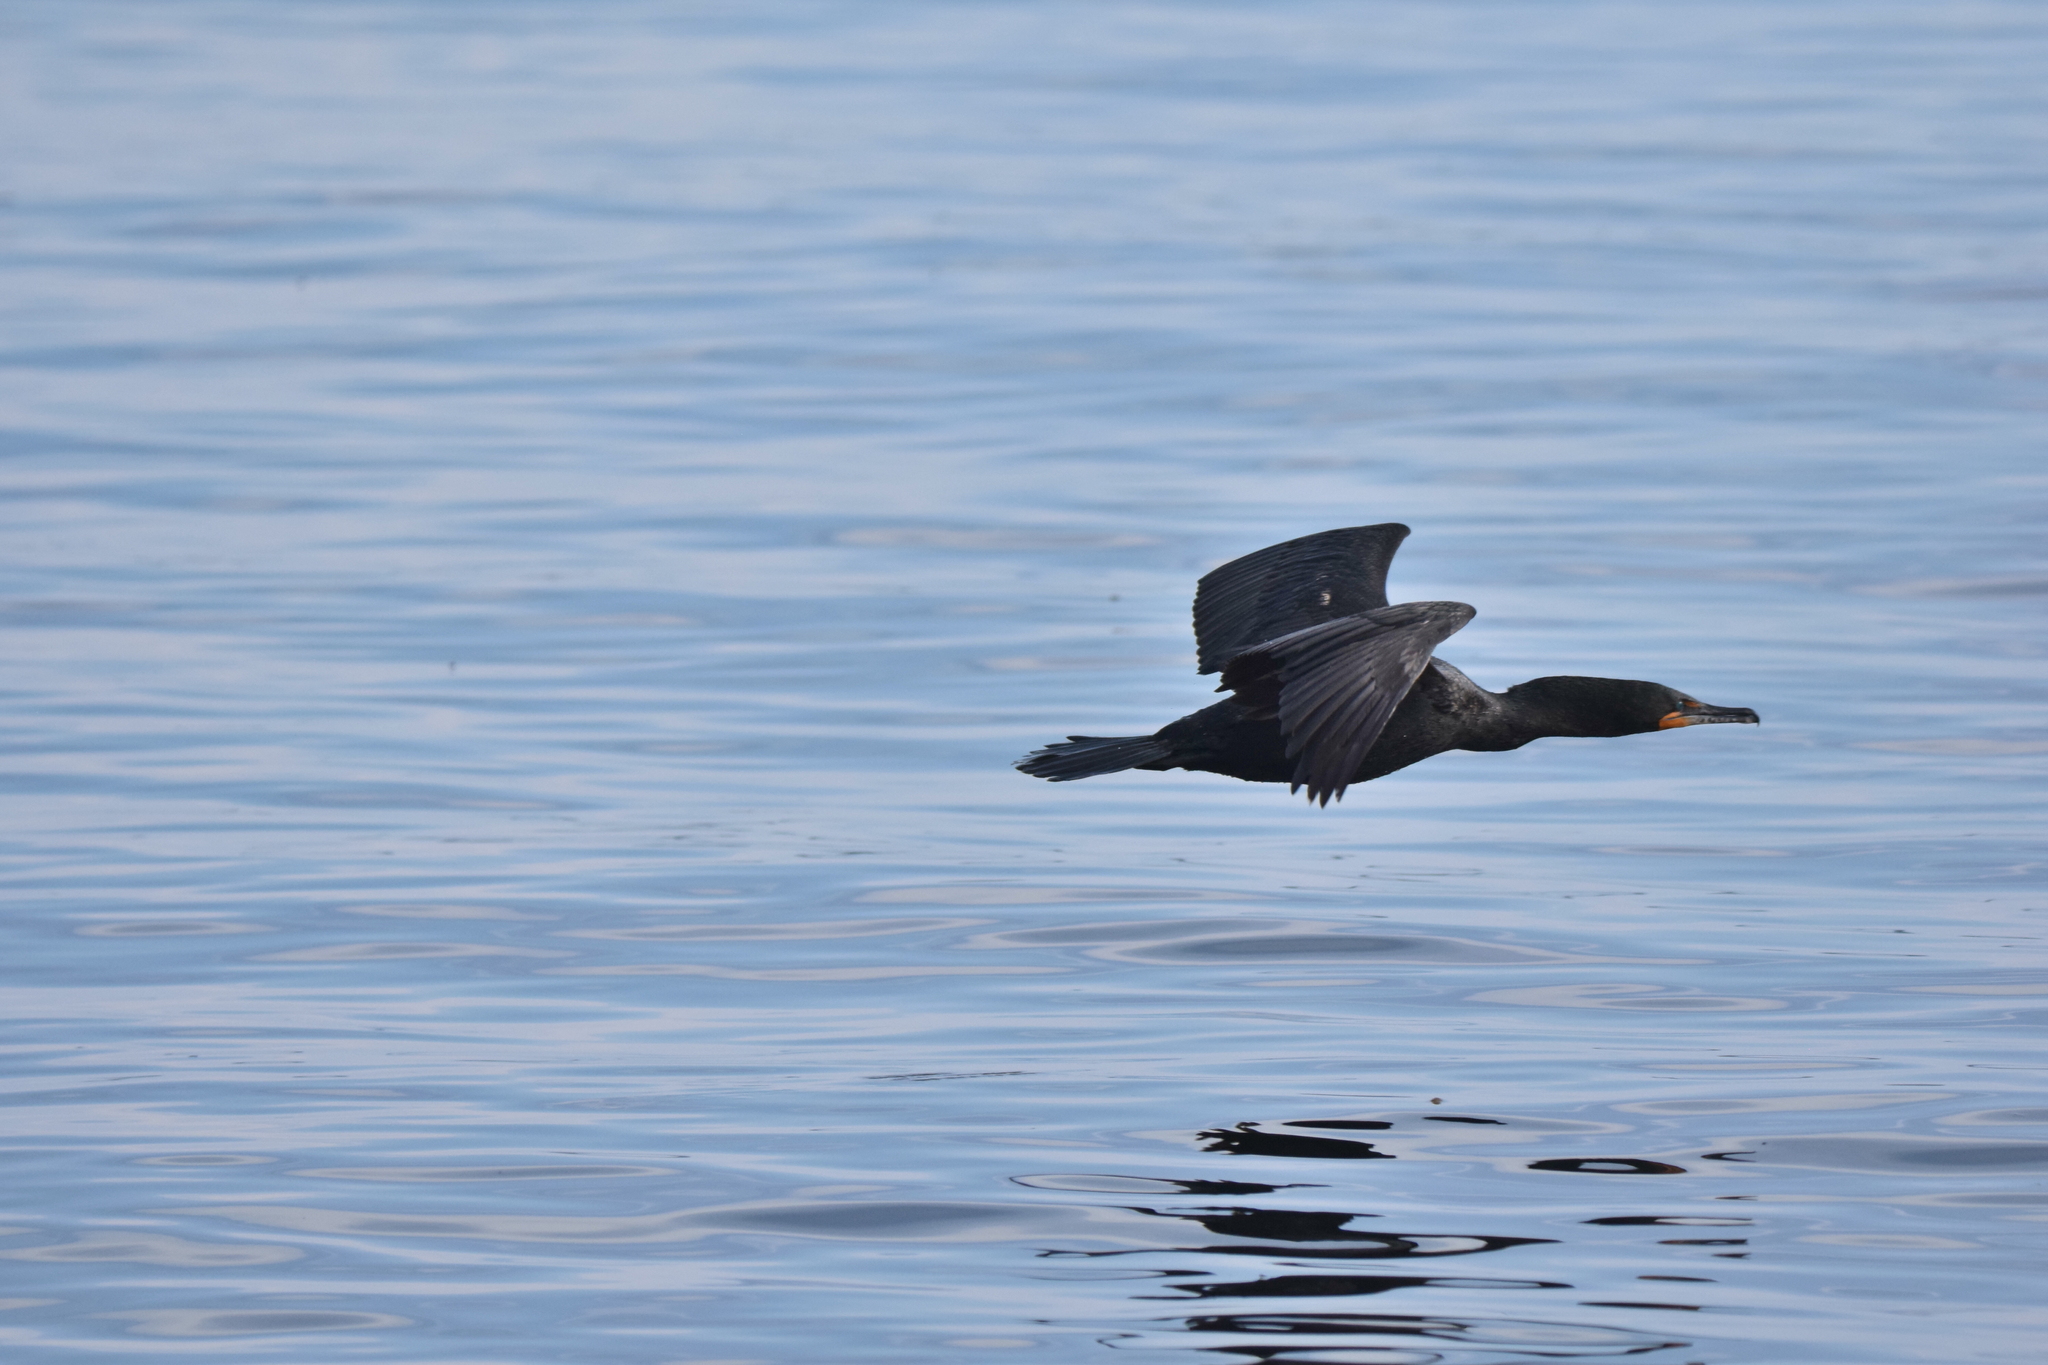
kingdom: Animalia
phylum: Chordata
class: Aves
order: Suliformes
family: Phalacrocoracidae
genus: Phalacrocorax
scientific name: Phalacrocorax auritus
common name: Double-crested cormorant
